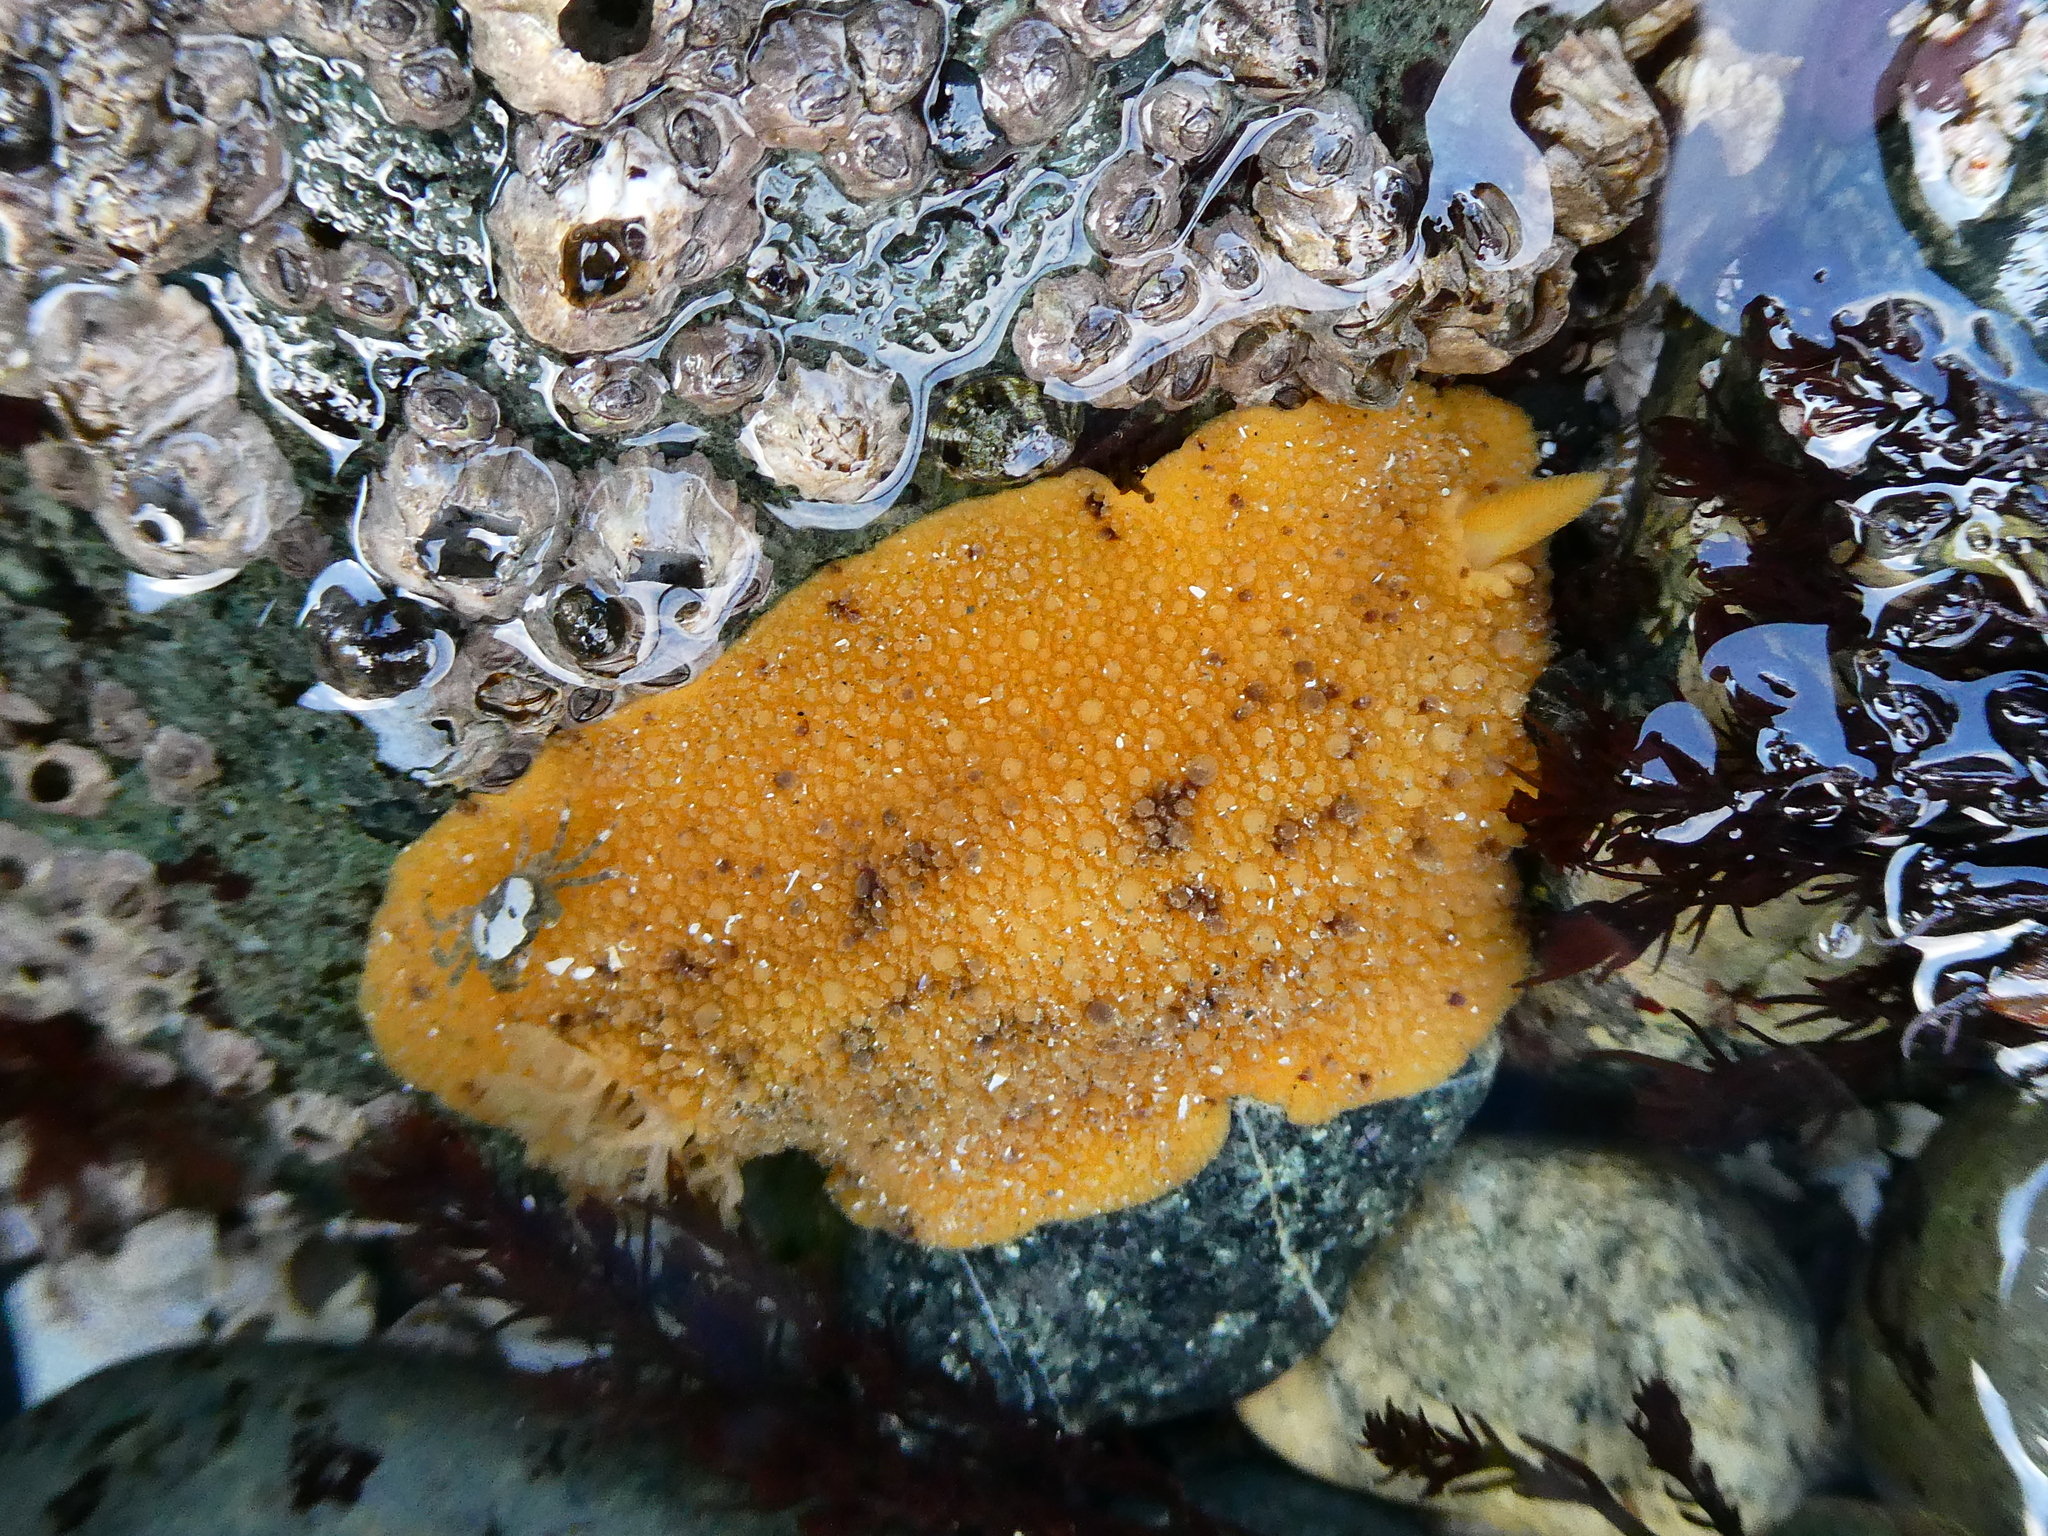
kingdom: Animalia
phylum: Mollusca
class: Gastropoda
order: Nudibranchia
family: Dorididae
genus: Doris
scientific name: Doris montereyensis
